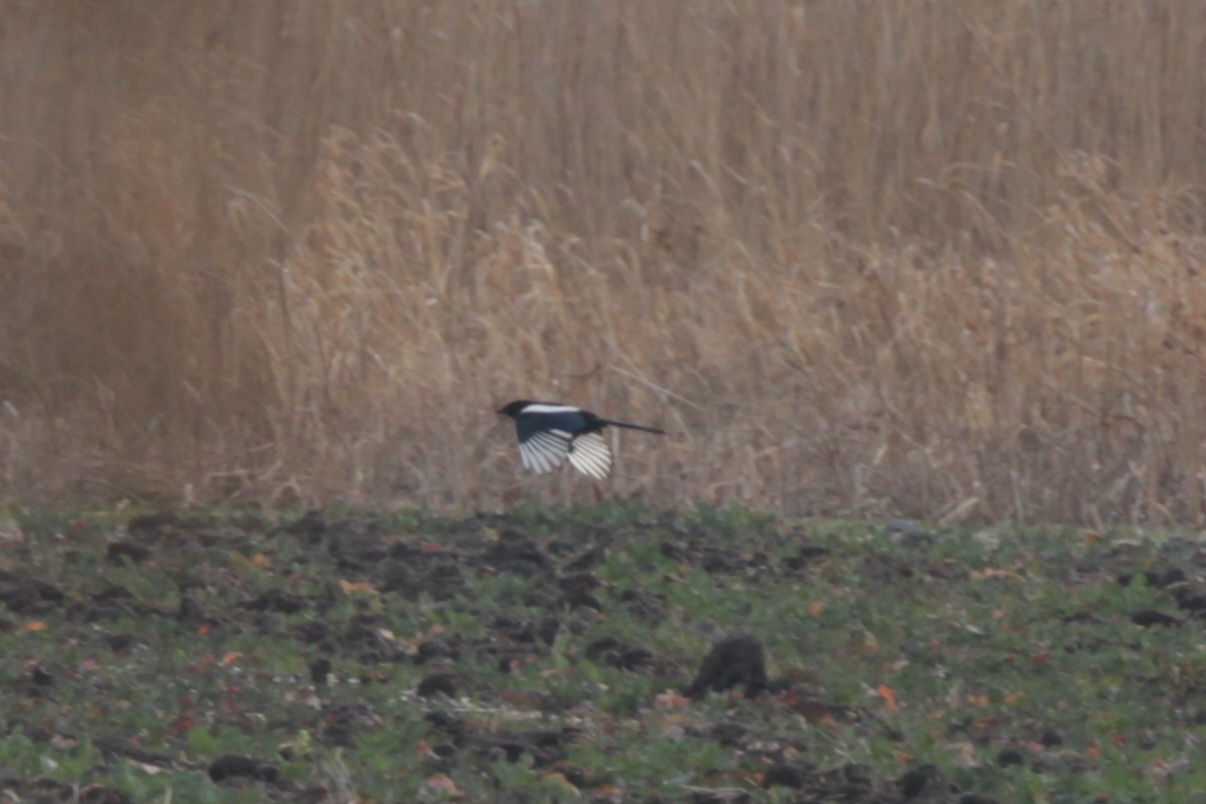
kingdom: Animalia
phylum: Chordata
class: Aves
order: Passeriformes
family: Corvidae
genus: Pica
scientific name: Pica pica
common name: Eurasian magpie
